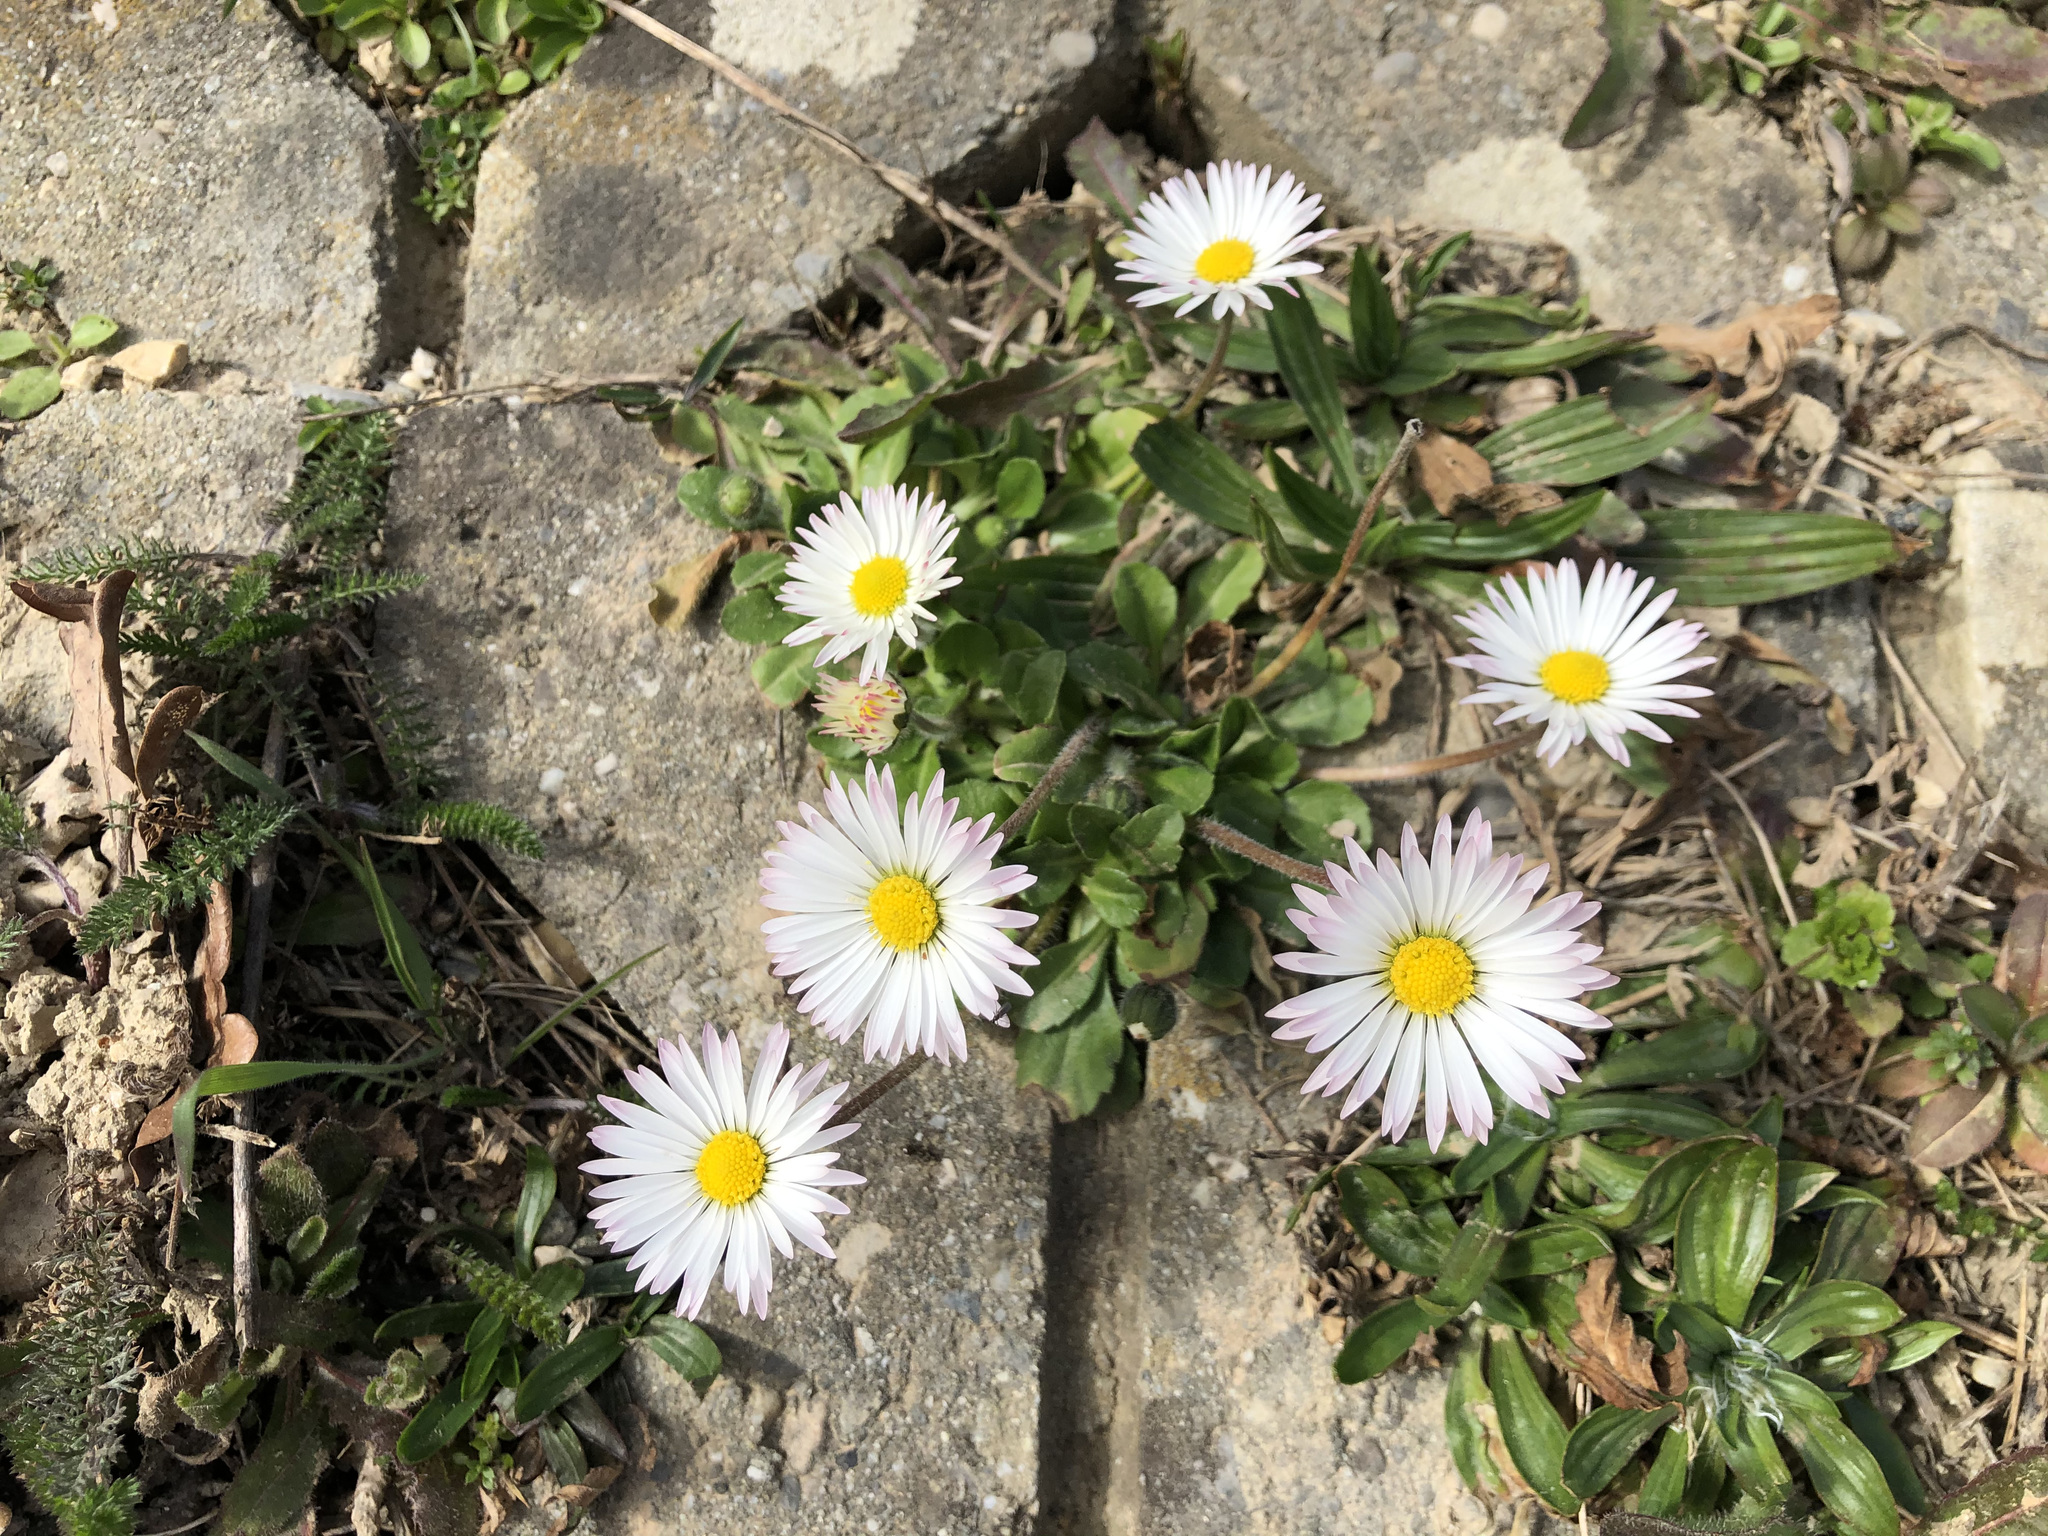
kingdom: Plantae
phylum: Tracheophyta
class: Magnoliopsida
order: Asterales
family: Asteraceae
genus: Bellis
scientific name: Bellis perennis
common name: Lawndaisy
